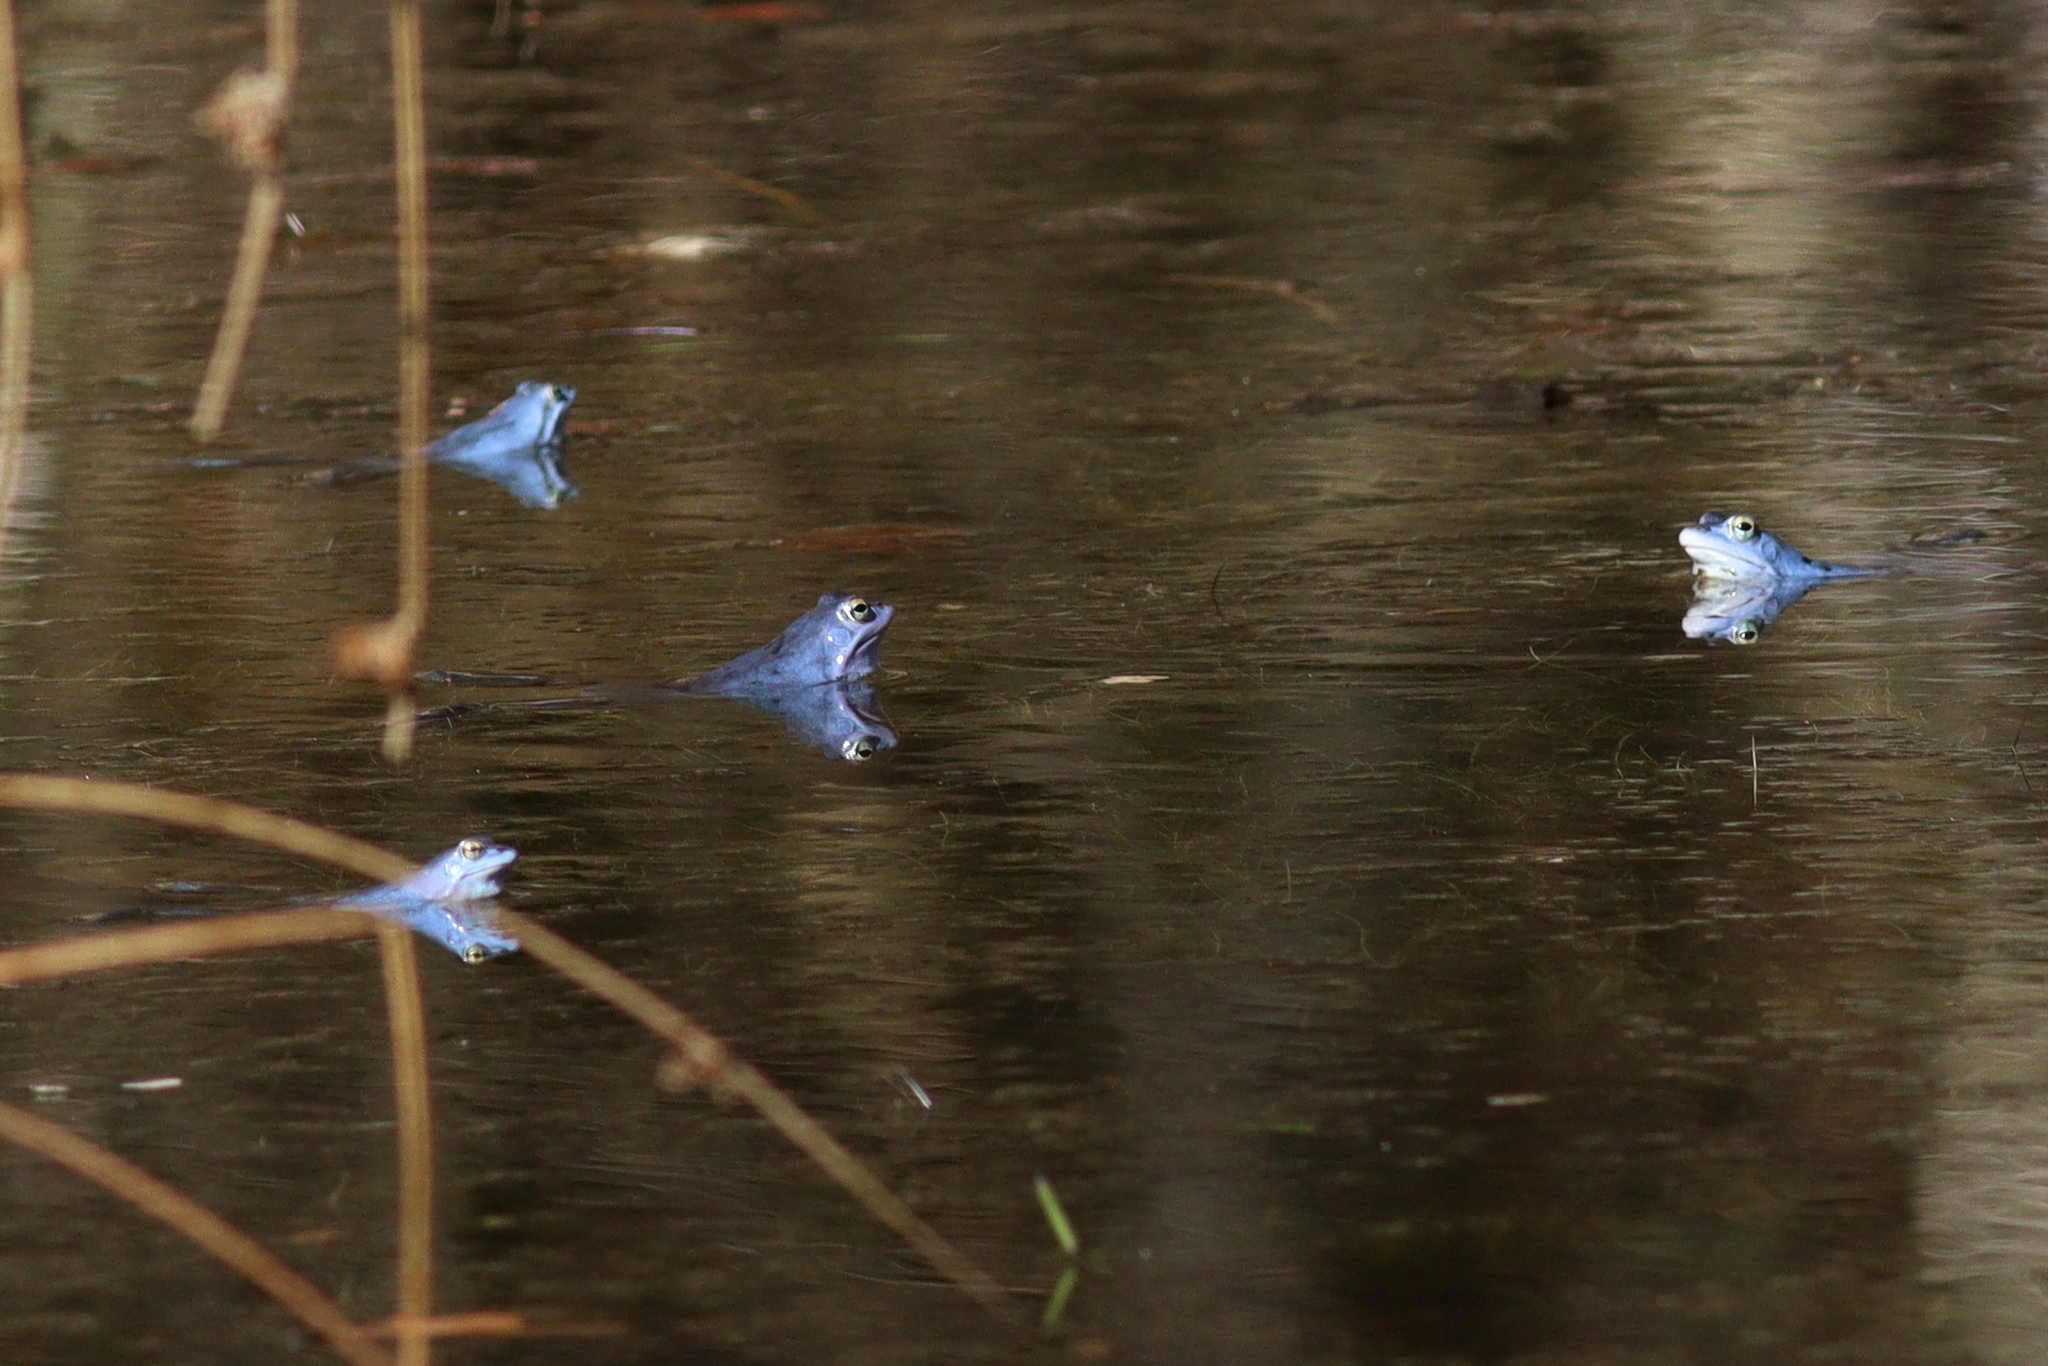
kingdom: Animalia
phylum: Chordata
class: Amphibia
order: Anura
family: Ranidae
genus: Rana
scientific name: Rana arvalis
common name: Moor frog
